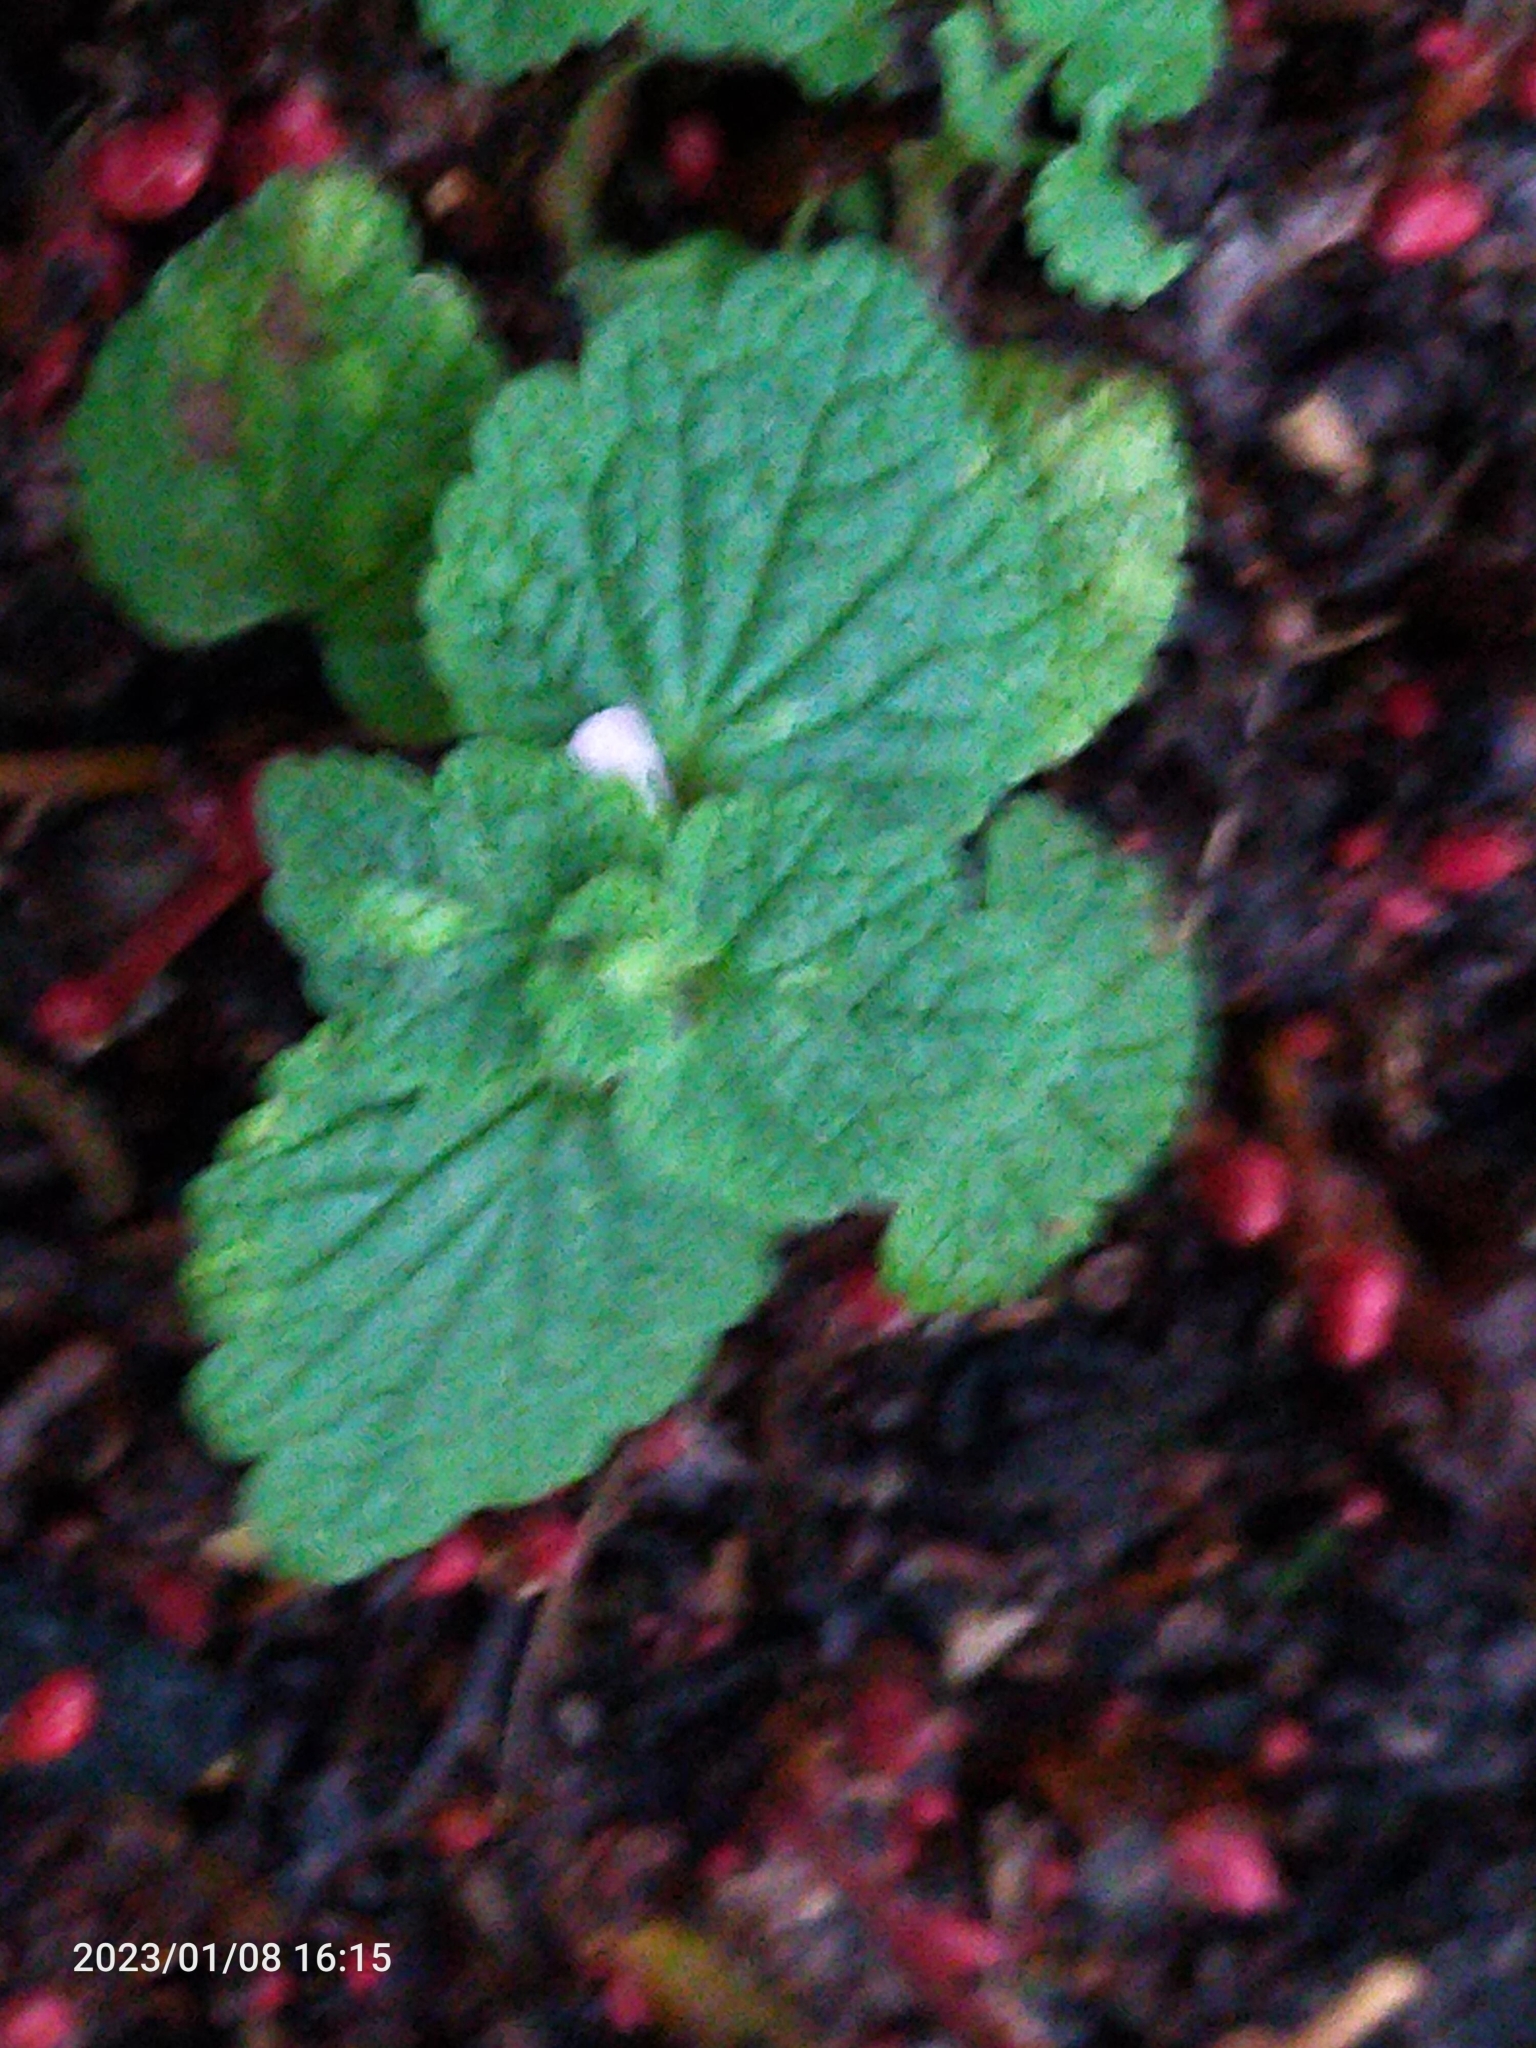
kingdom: Plantae
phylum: Tracheophyta
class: Magnoliopsida
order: Lamiales
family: Lamiaceae
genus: Lamium
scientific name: Lamium purpureum
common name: Red dead-nettle
